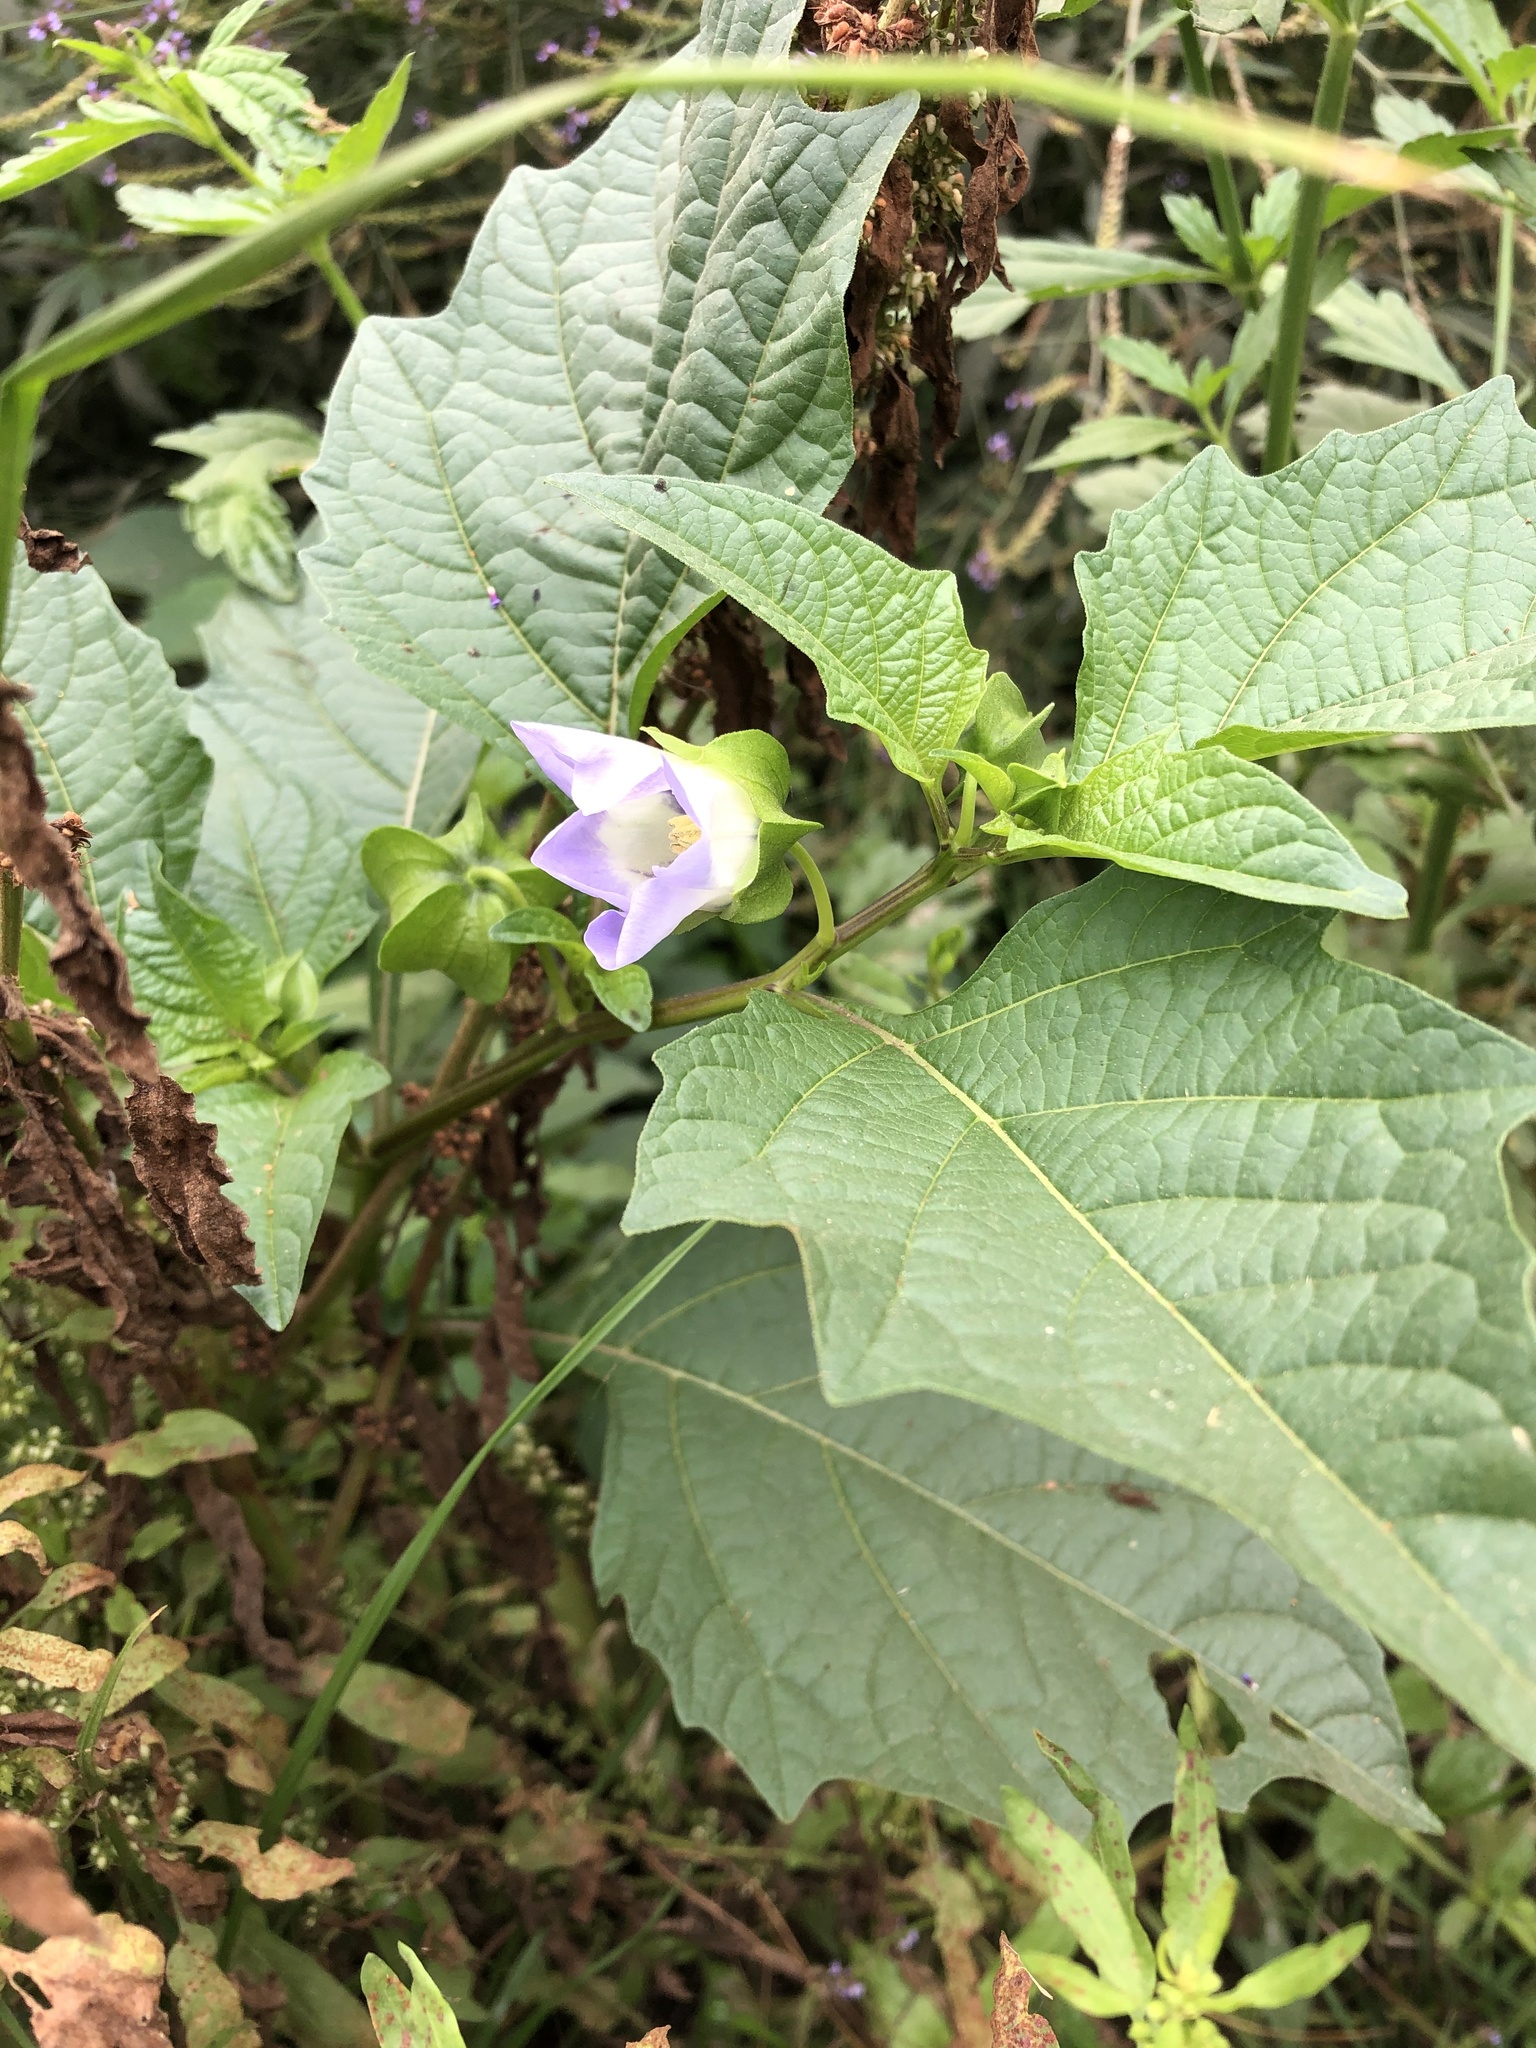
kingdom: Plantae
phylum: Tracheophyta
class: Magnoliopsida
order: Solanales
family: Solanaceae
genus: Nicandra
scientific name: Nicandra physalodes
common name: Apple-of-peru
